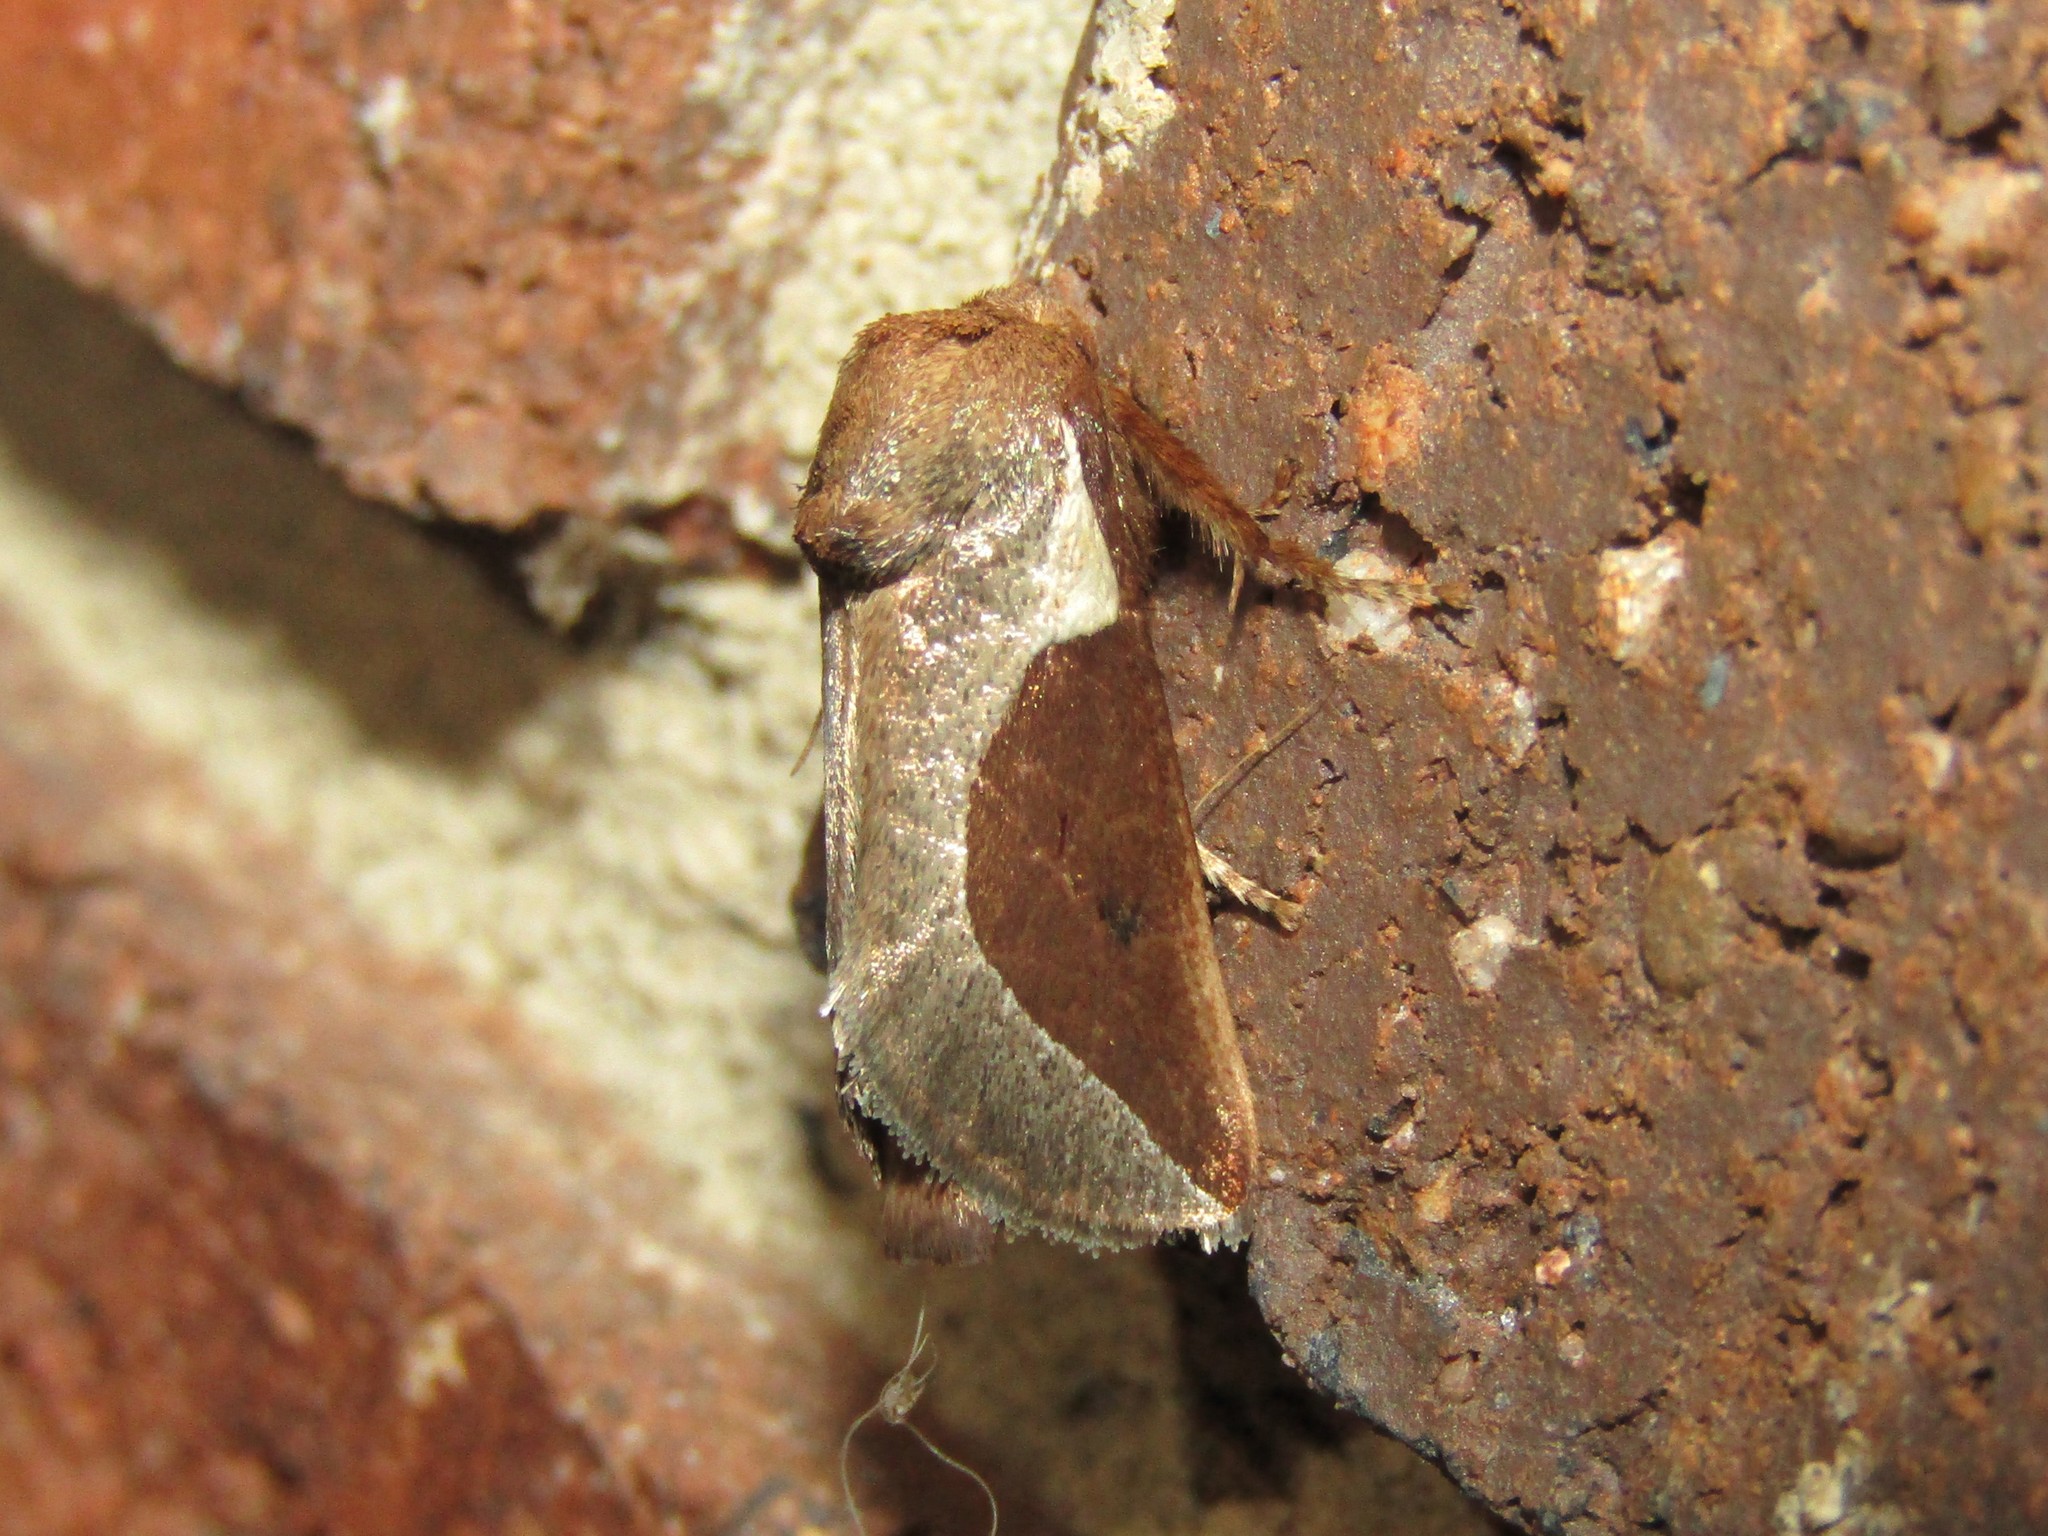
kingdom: Animalia
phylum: Arthropoda
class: Insecta
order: Lepidoptera
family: Limacodidae
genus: Prolimacodes
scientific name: Prolimacodes badia
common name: Skiff moth
